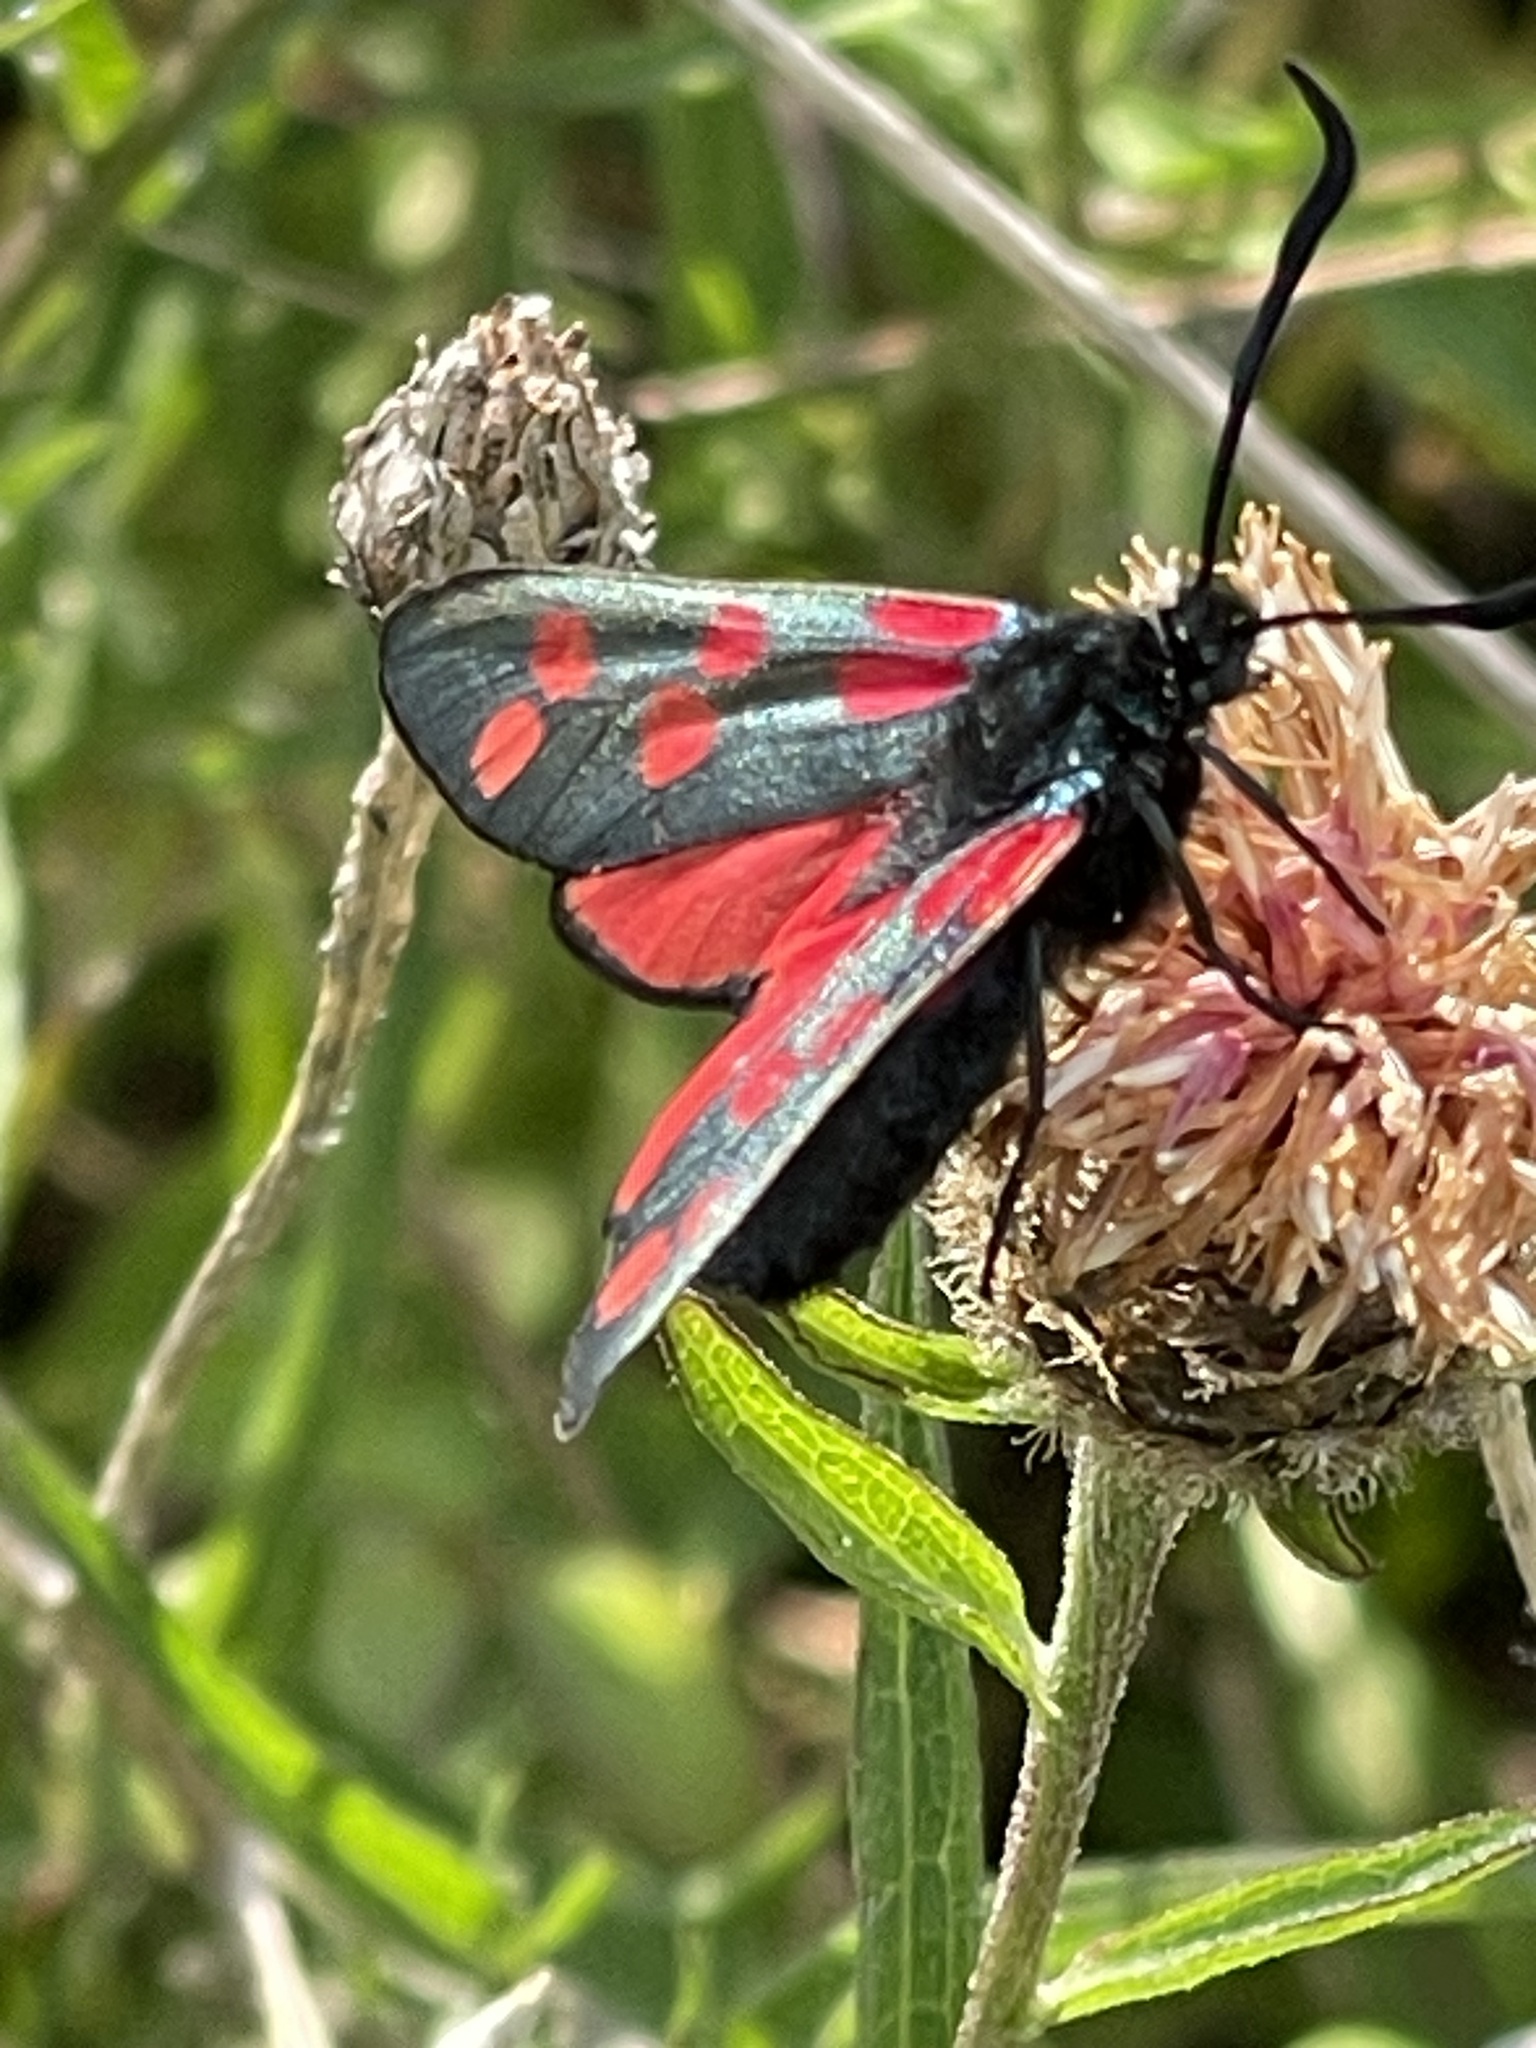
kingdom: Animalia
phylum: Arthropoda
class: Insecta
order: Lepidoptera
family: Zygaenidae
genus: Zygaena
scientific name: Zygaena filipendulae
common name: Six-spot burnet
